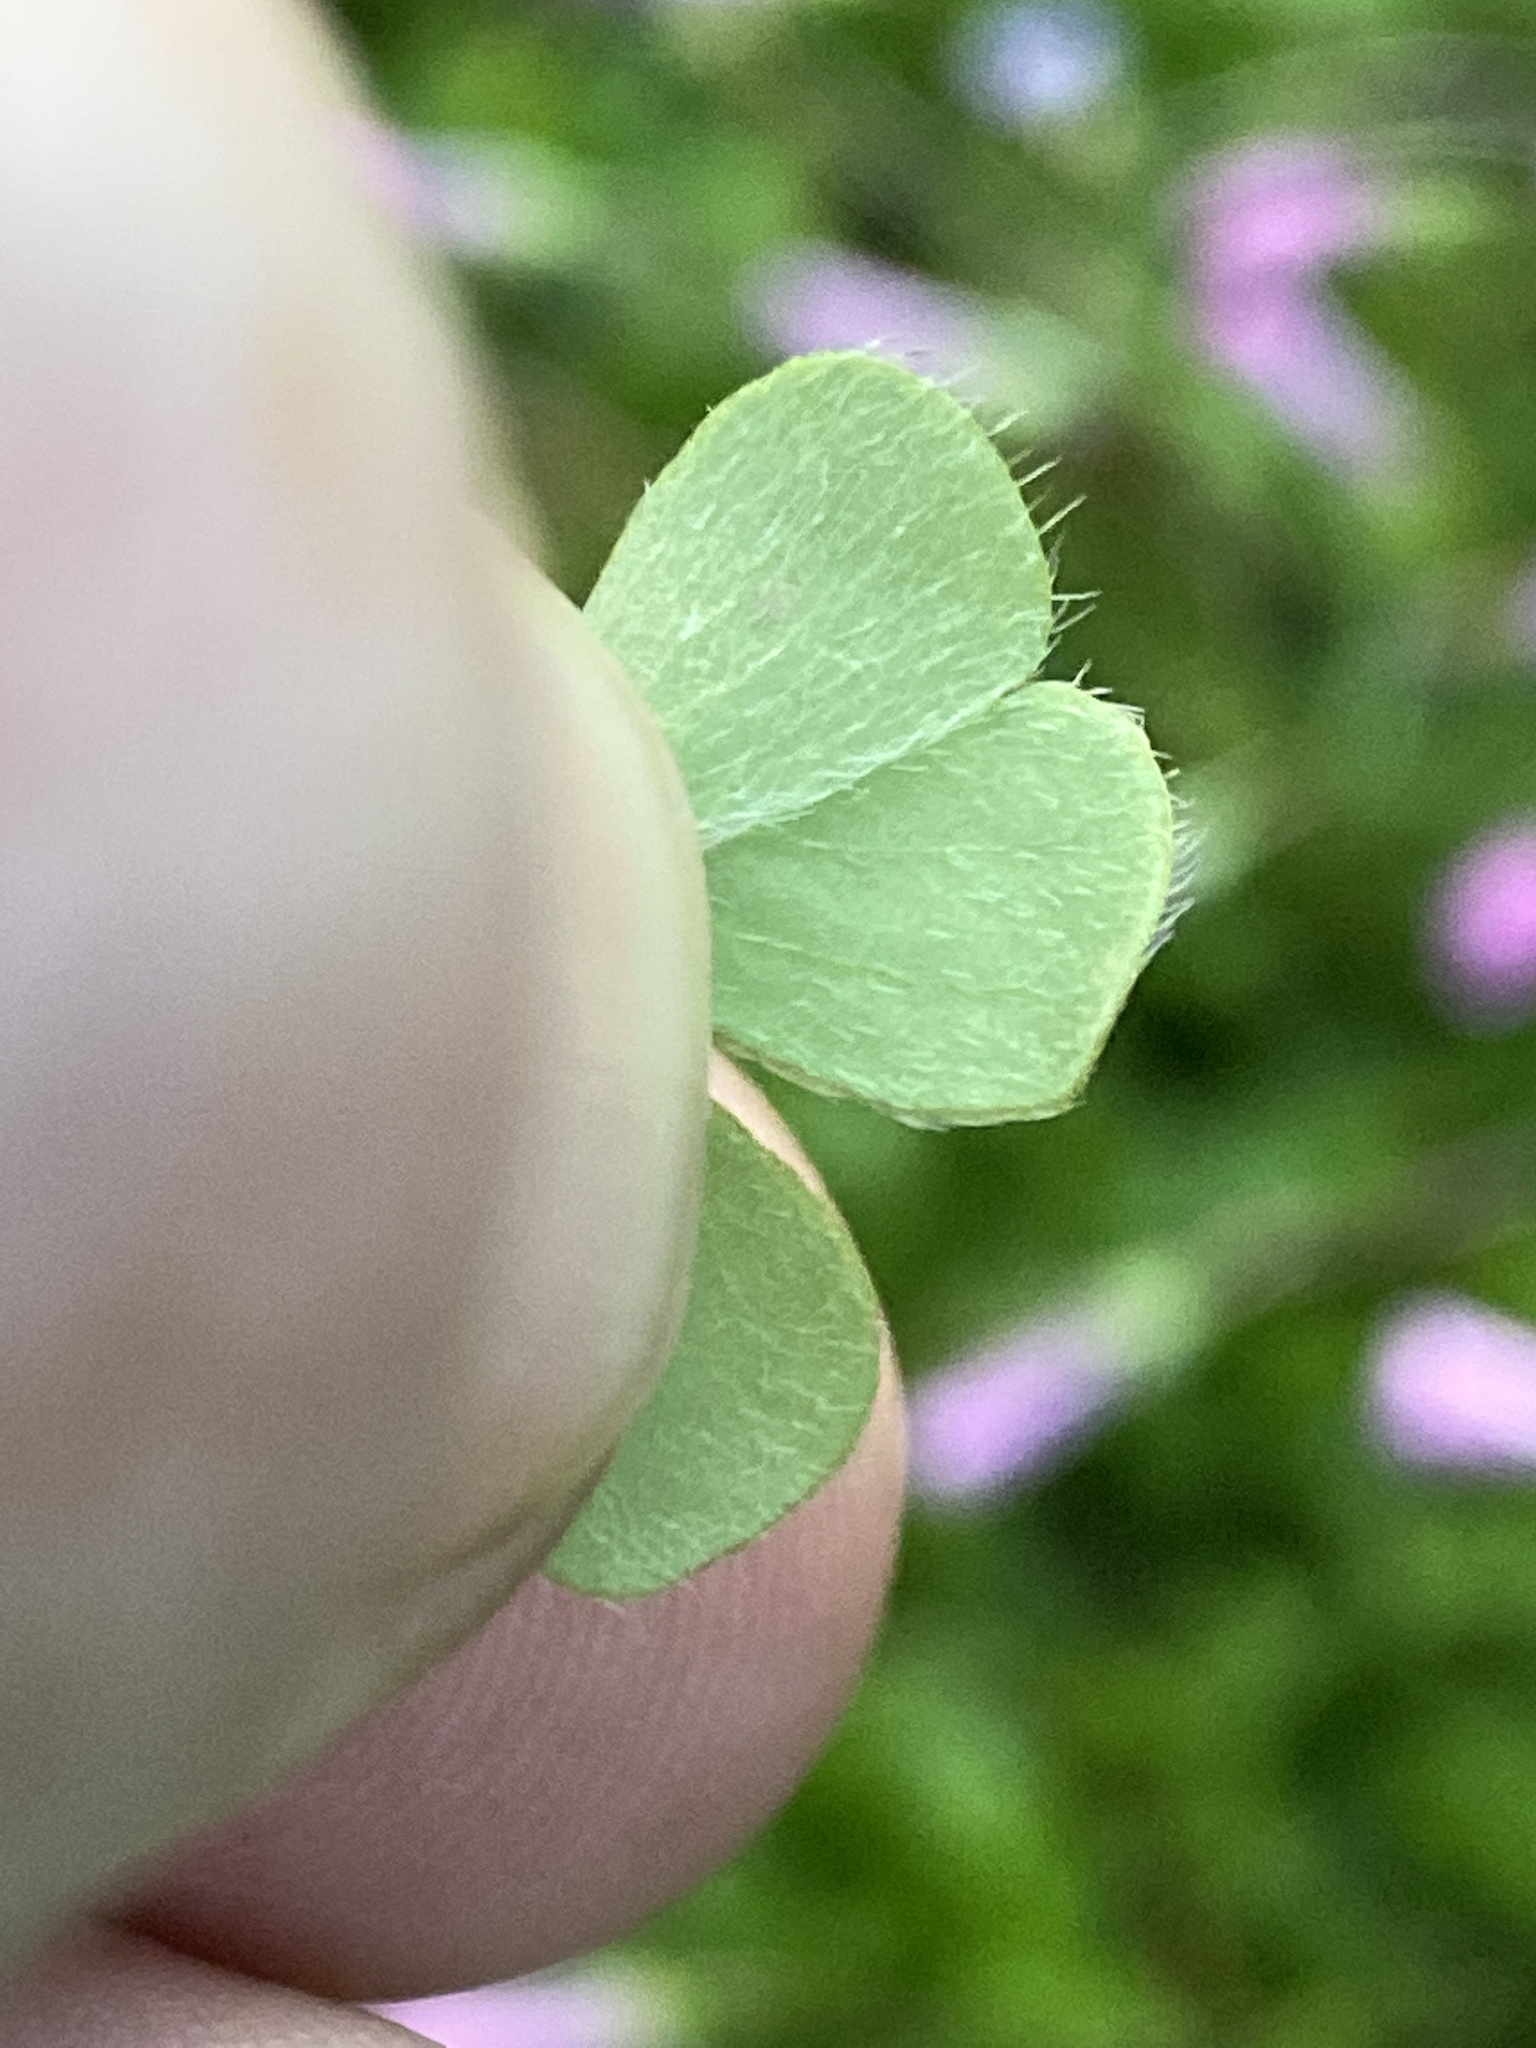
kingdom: Plantae
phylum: Tracheophyta
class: Magnoliopsida
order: Oxalidales
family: Oxalidaceae
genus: Oxalis
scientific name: Oxalis hispidula
